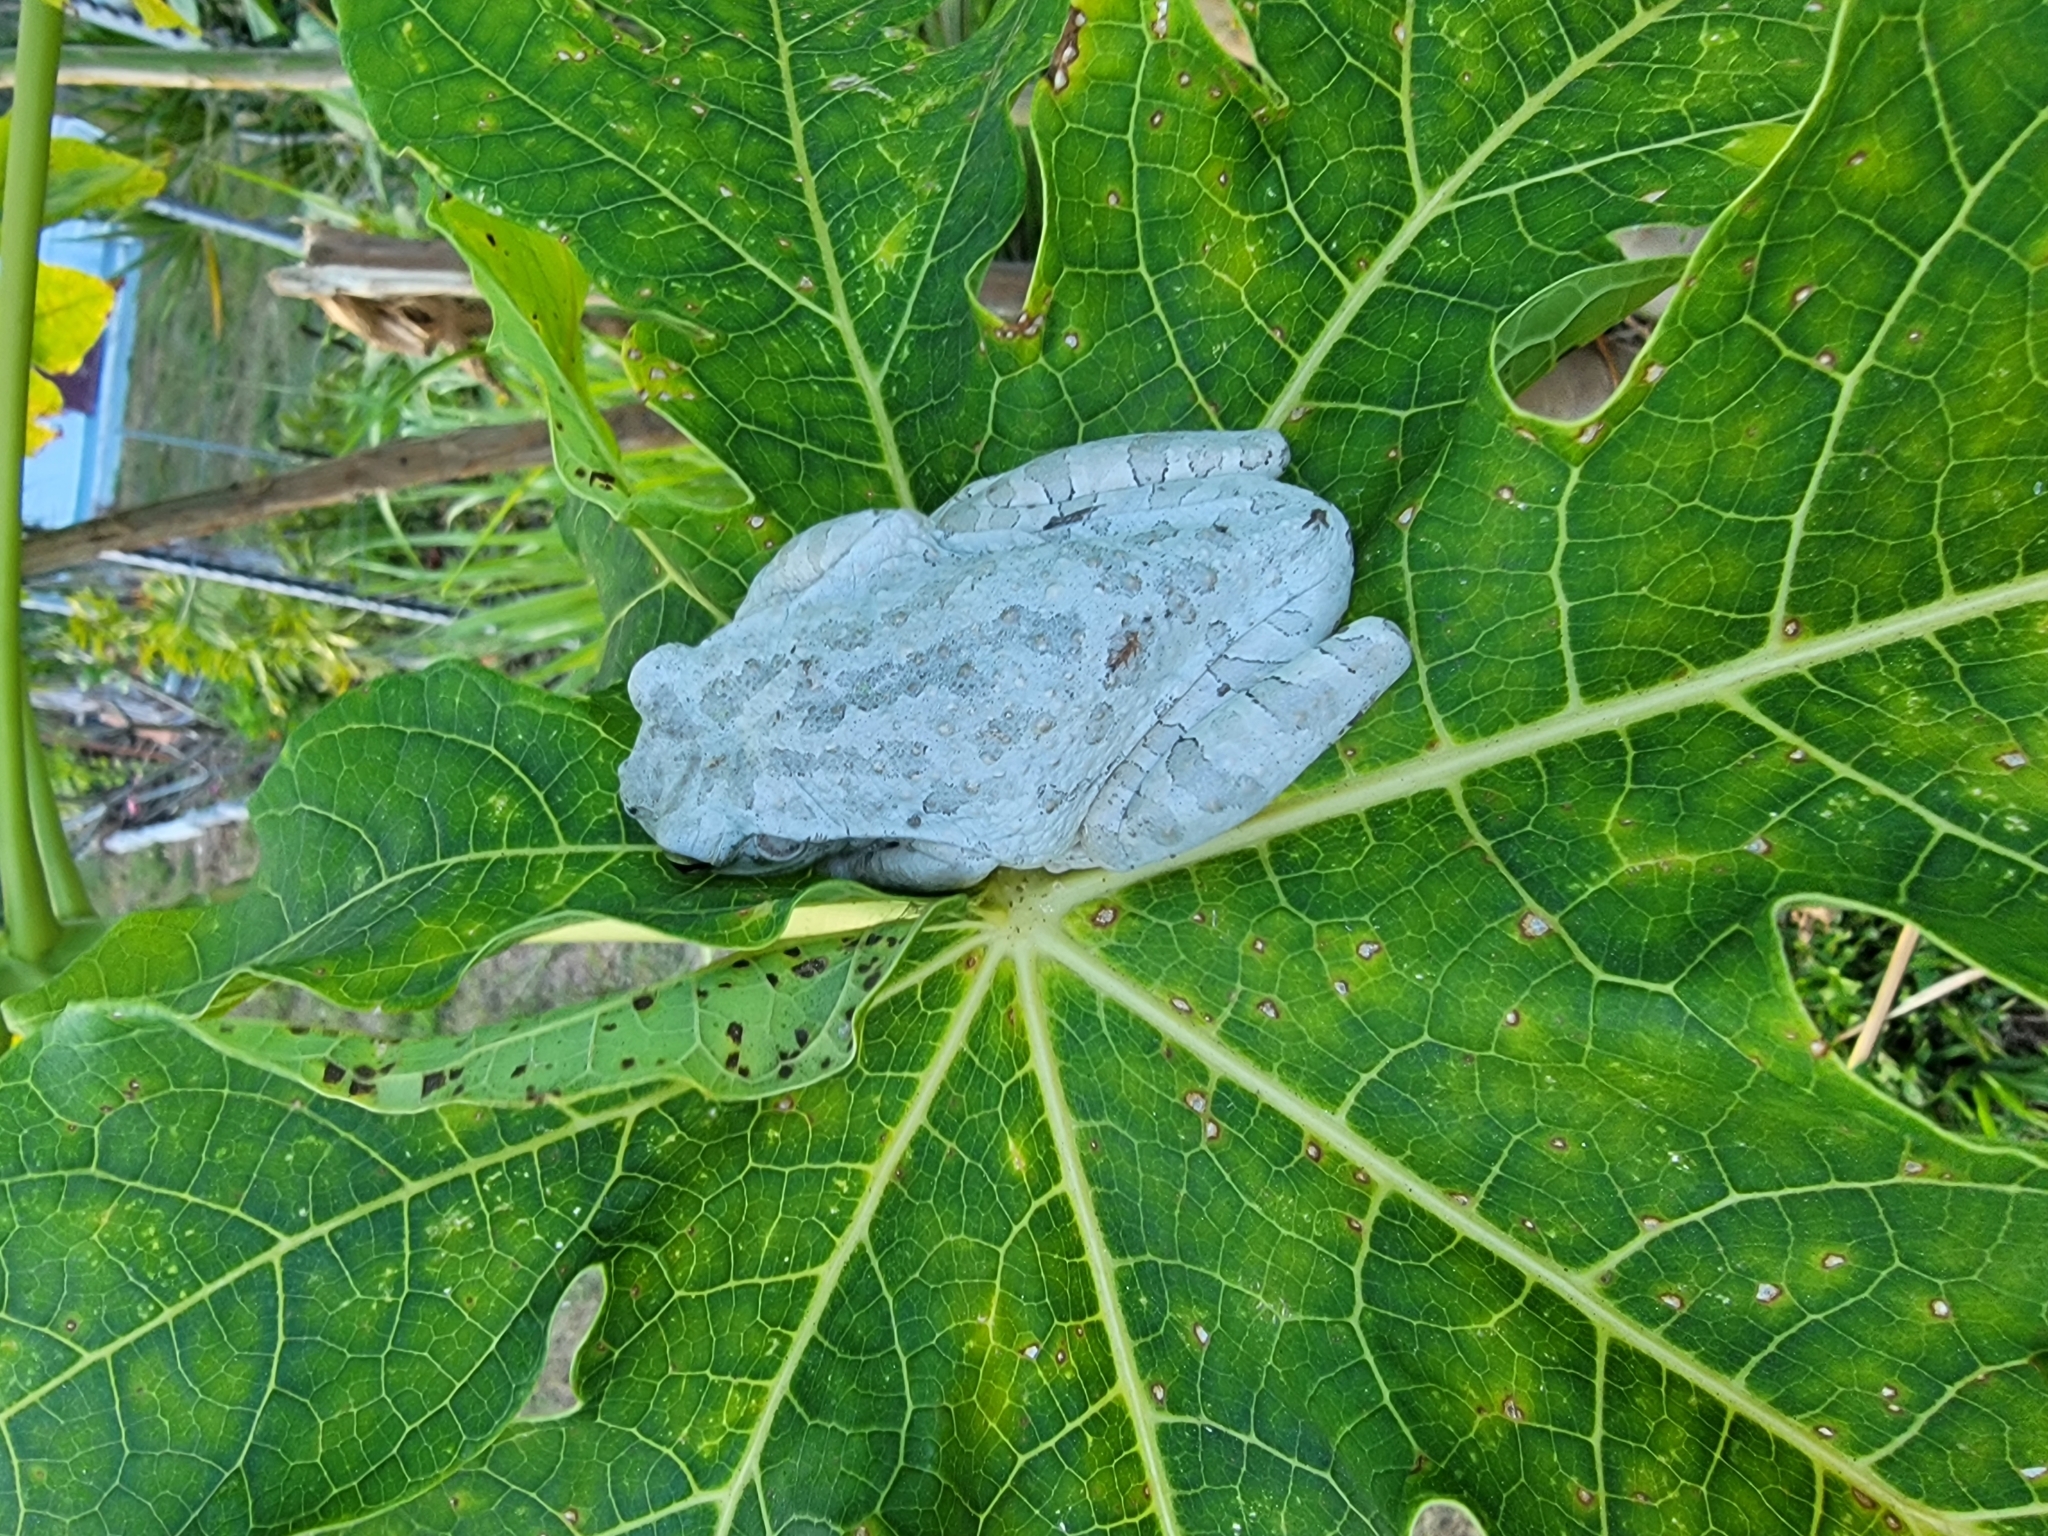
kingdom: Animalia
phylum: Chordata
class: Amphibia
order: Anura
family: Hylidae
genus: Osteopilus
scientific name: Osteopilus septentrionalis
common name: Cuban treefrog
